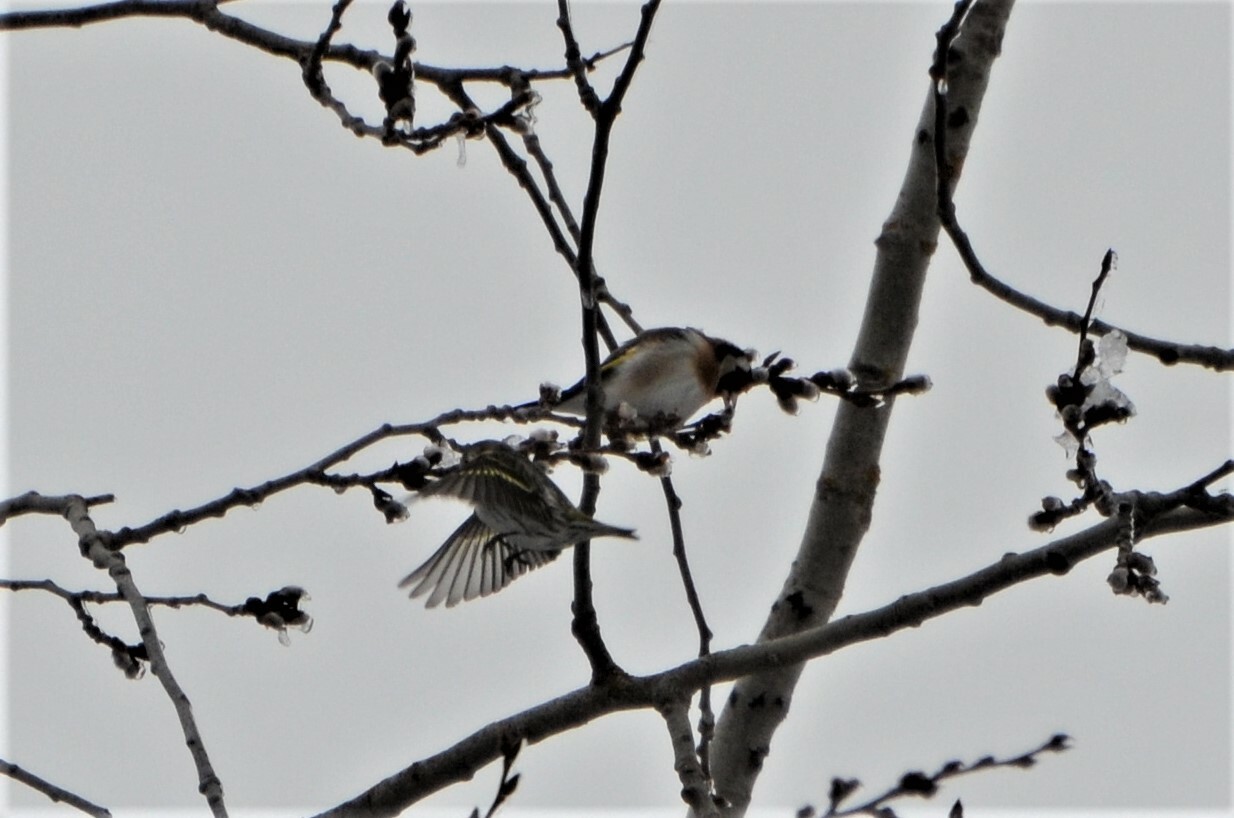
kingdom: Animalia
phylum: Chordata
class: Aves
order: Passeriformes
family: Fringillidae
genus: Carduelis
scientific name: Carduelis carduelis
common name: European goldfinch
